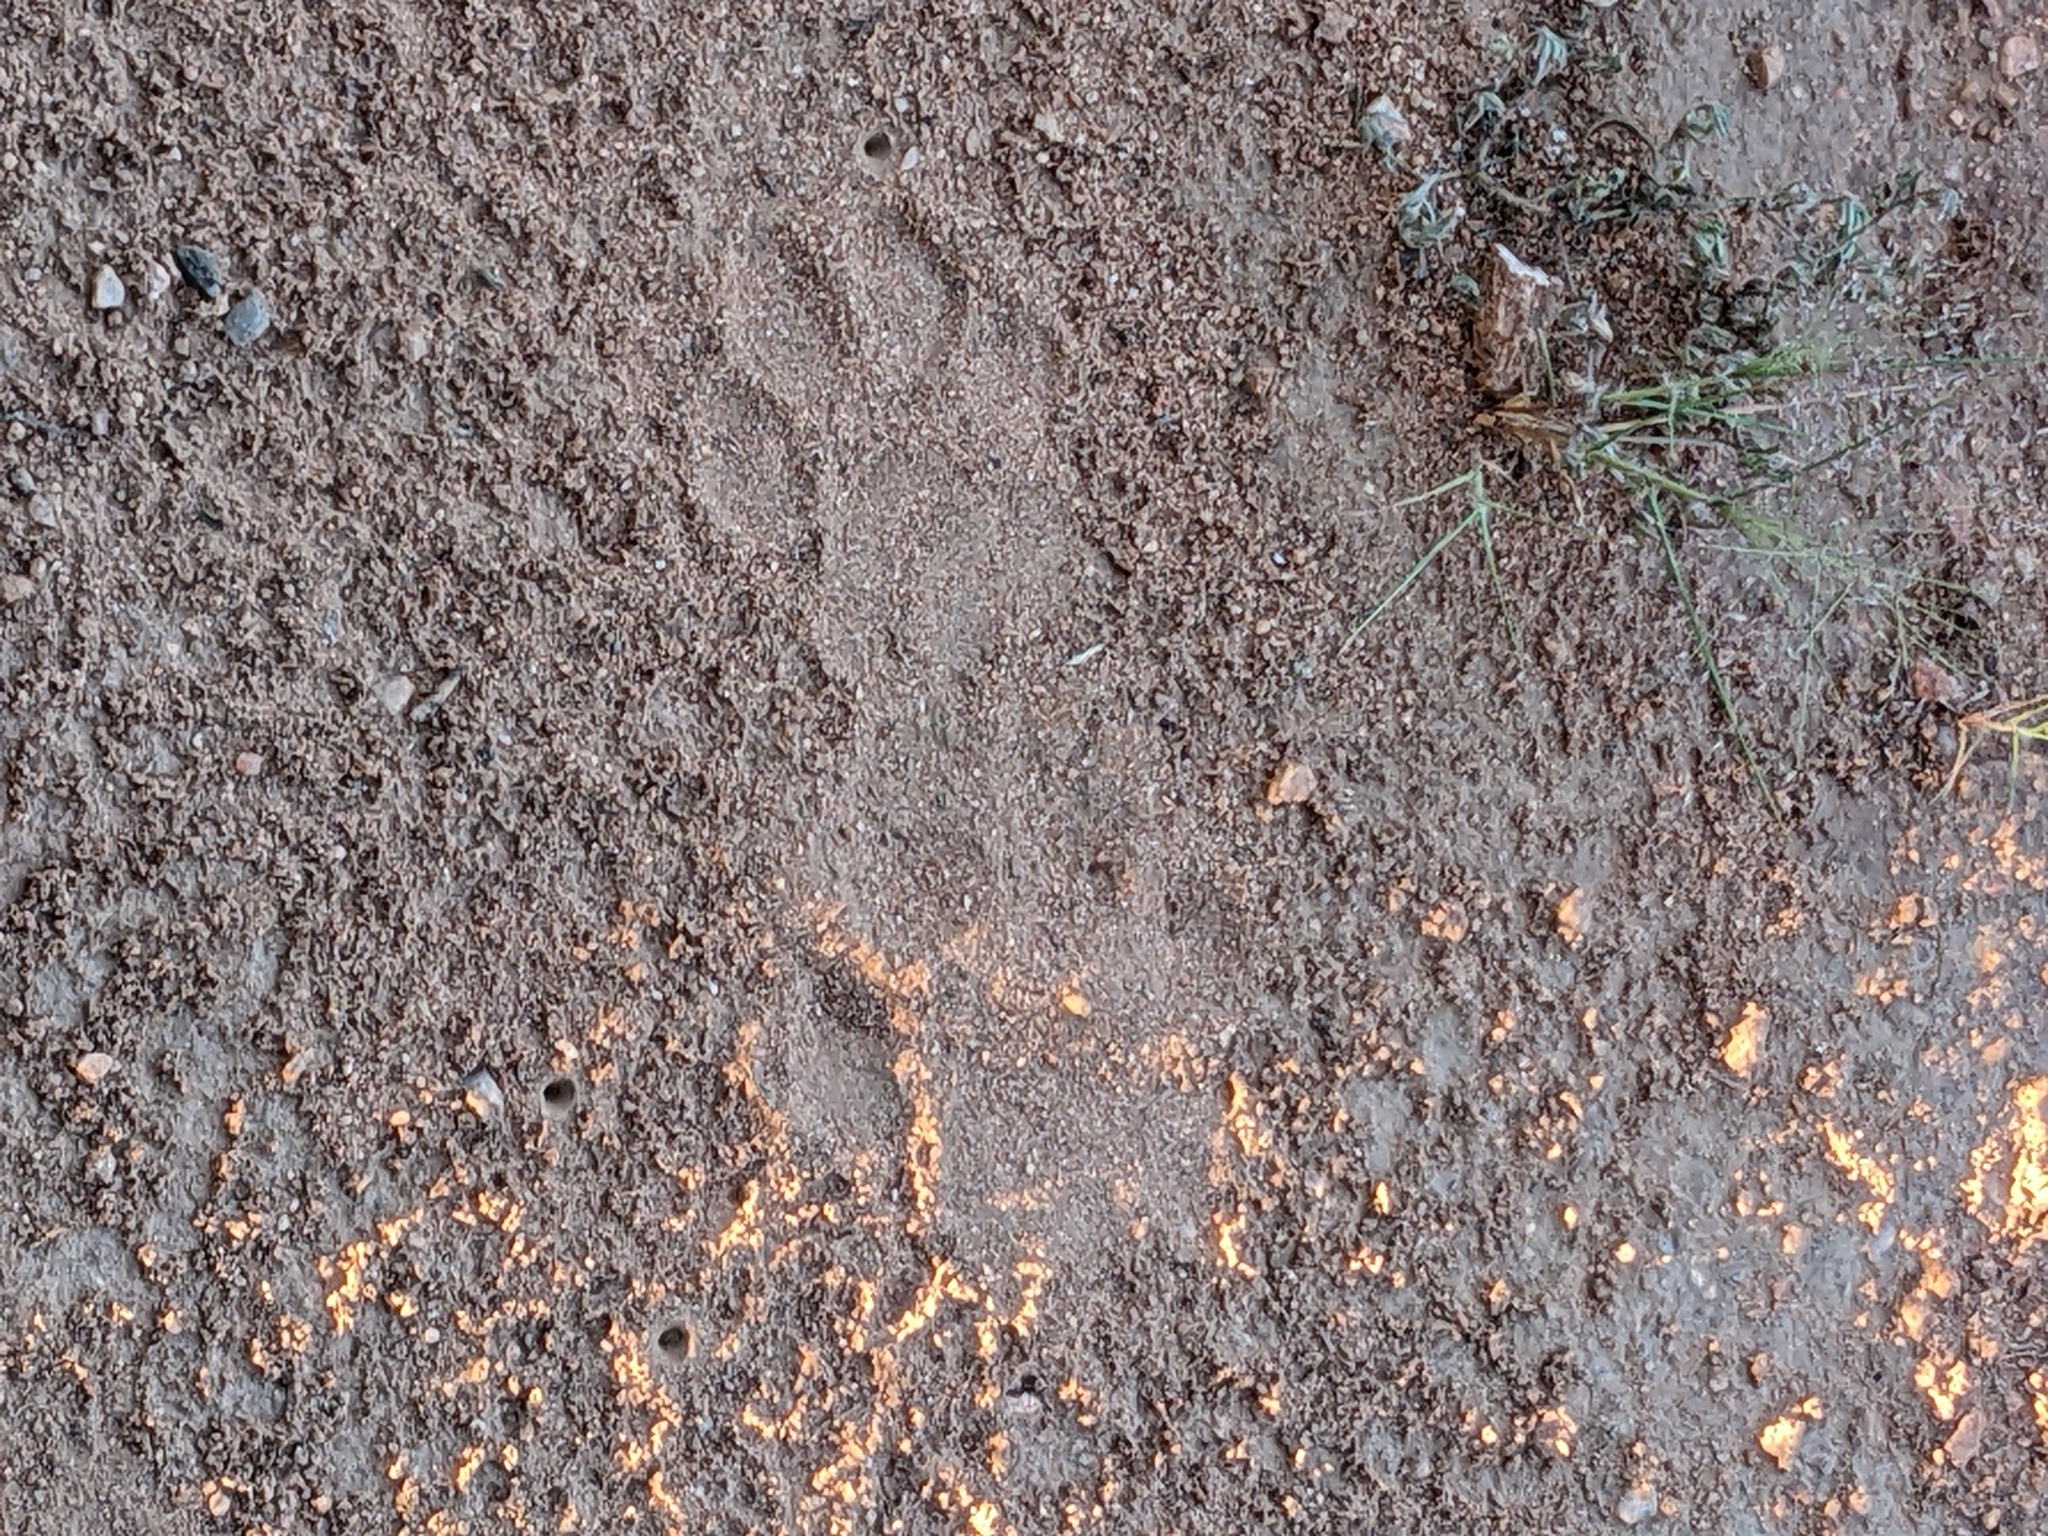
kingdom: Animalia
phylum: Chordata
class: Mammalia
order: Carnivora
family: Felidae
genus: Panthera
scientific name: Panthera pardus
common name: Leopard
